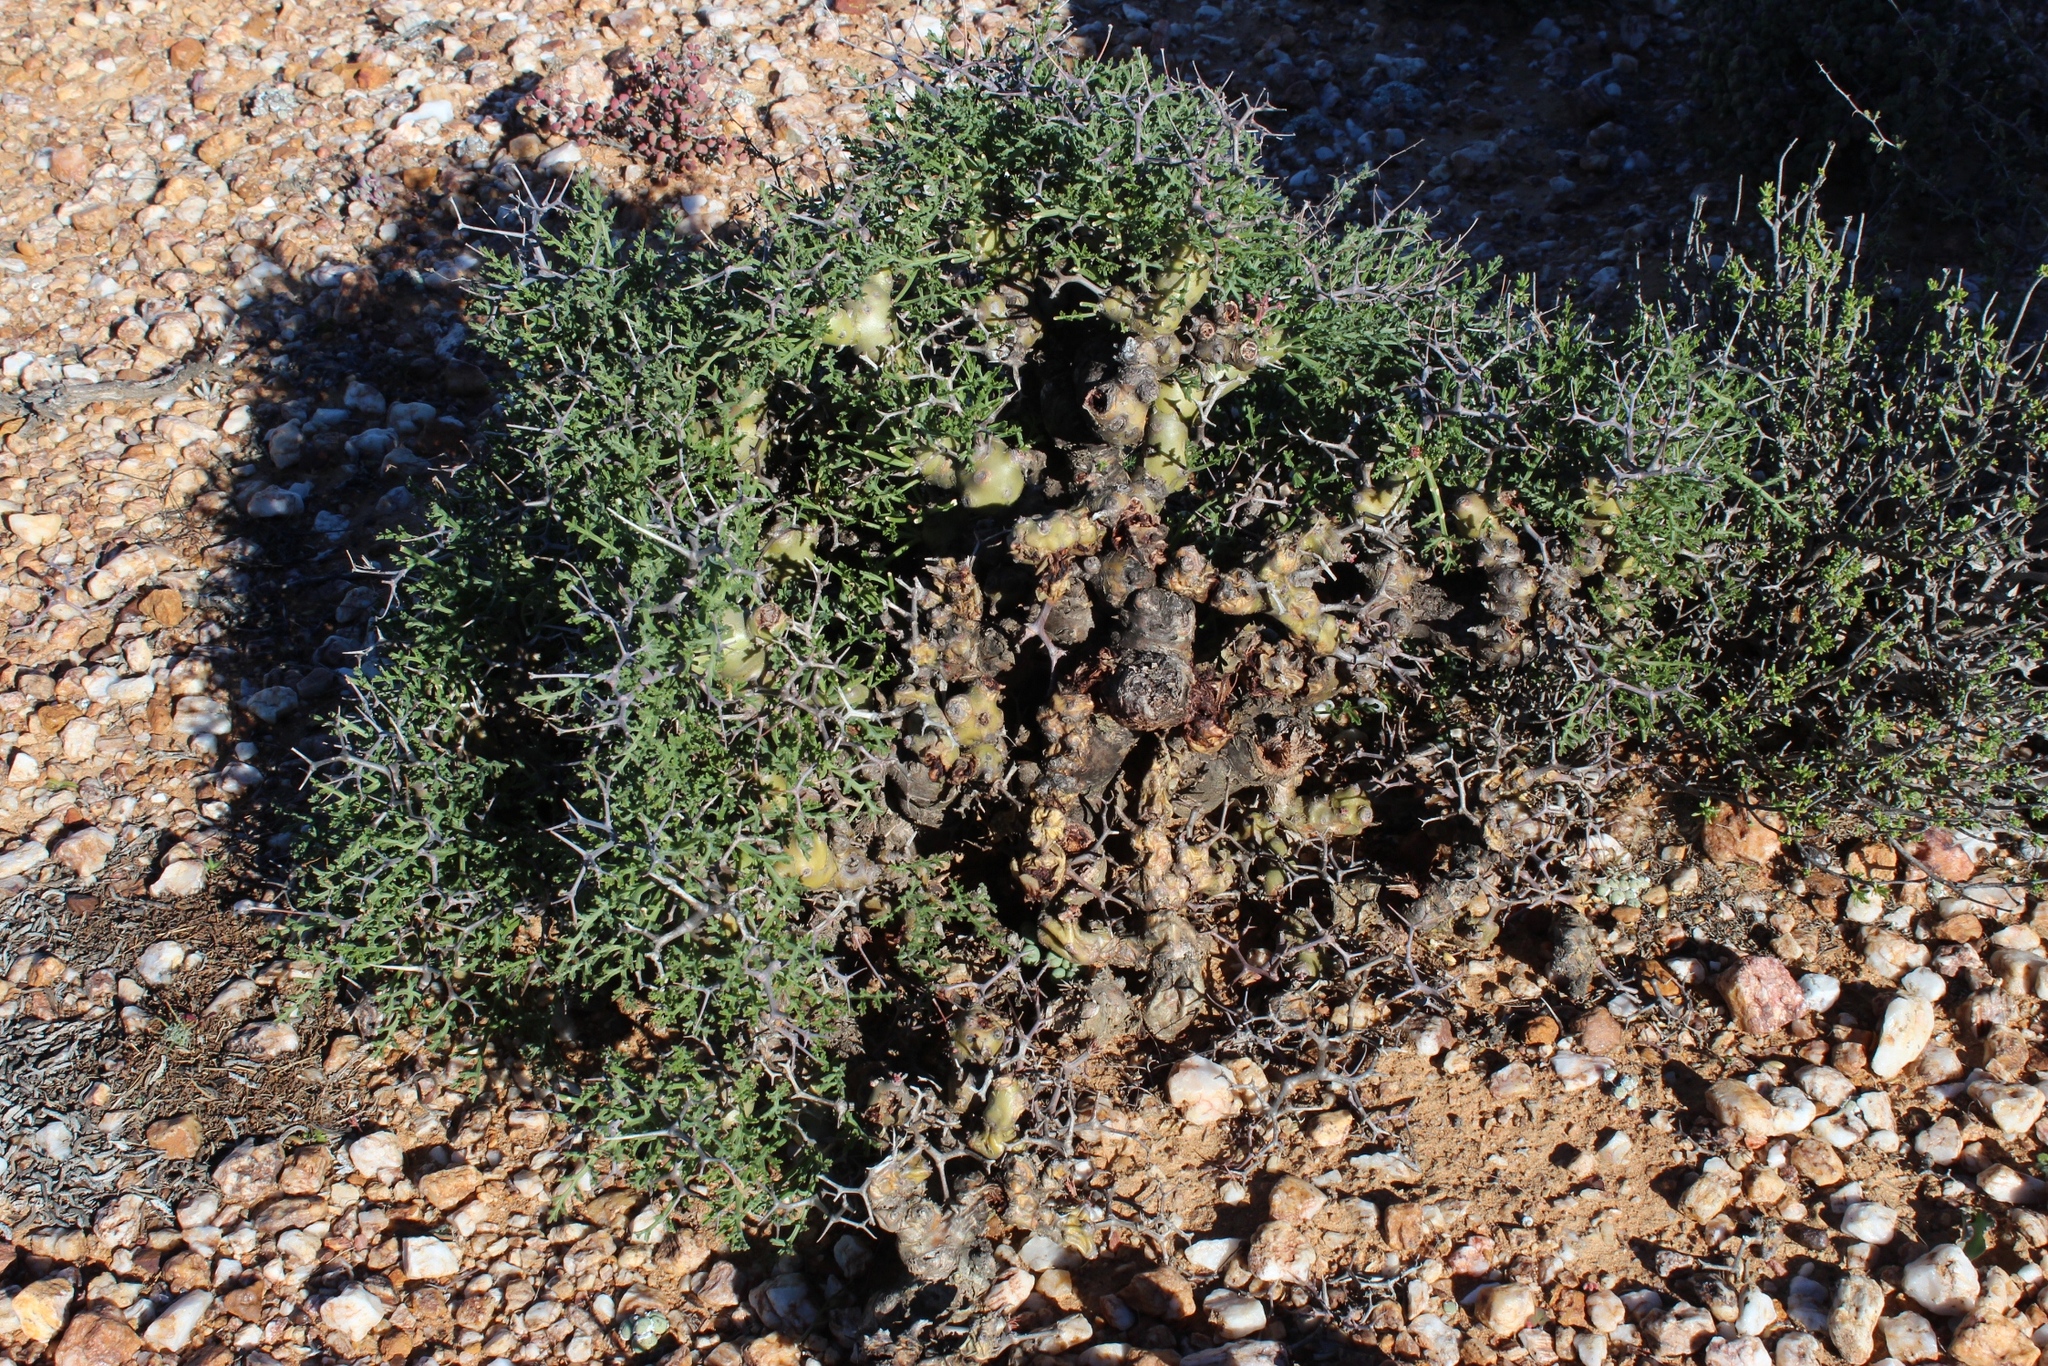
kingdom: Plantae
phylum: Tracheophyta
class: Magnoliopsida
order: Geraniales
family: Geraniaceae
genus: Pelargonium
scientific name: Pelargonium crithmifolium
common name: Samphire-leaf pelargonium
